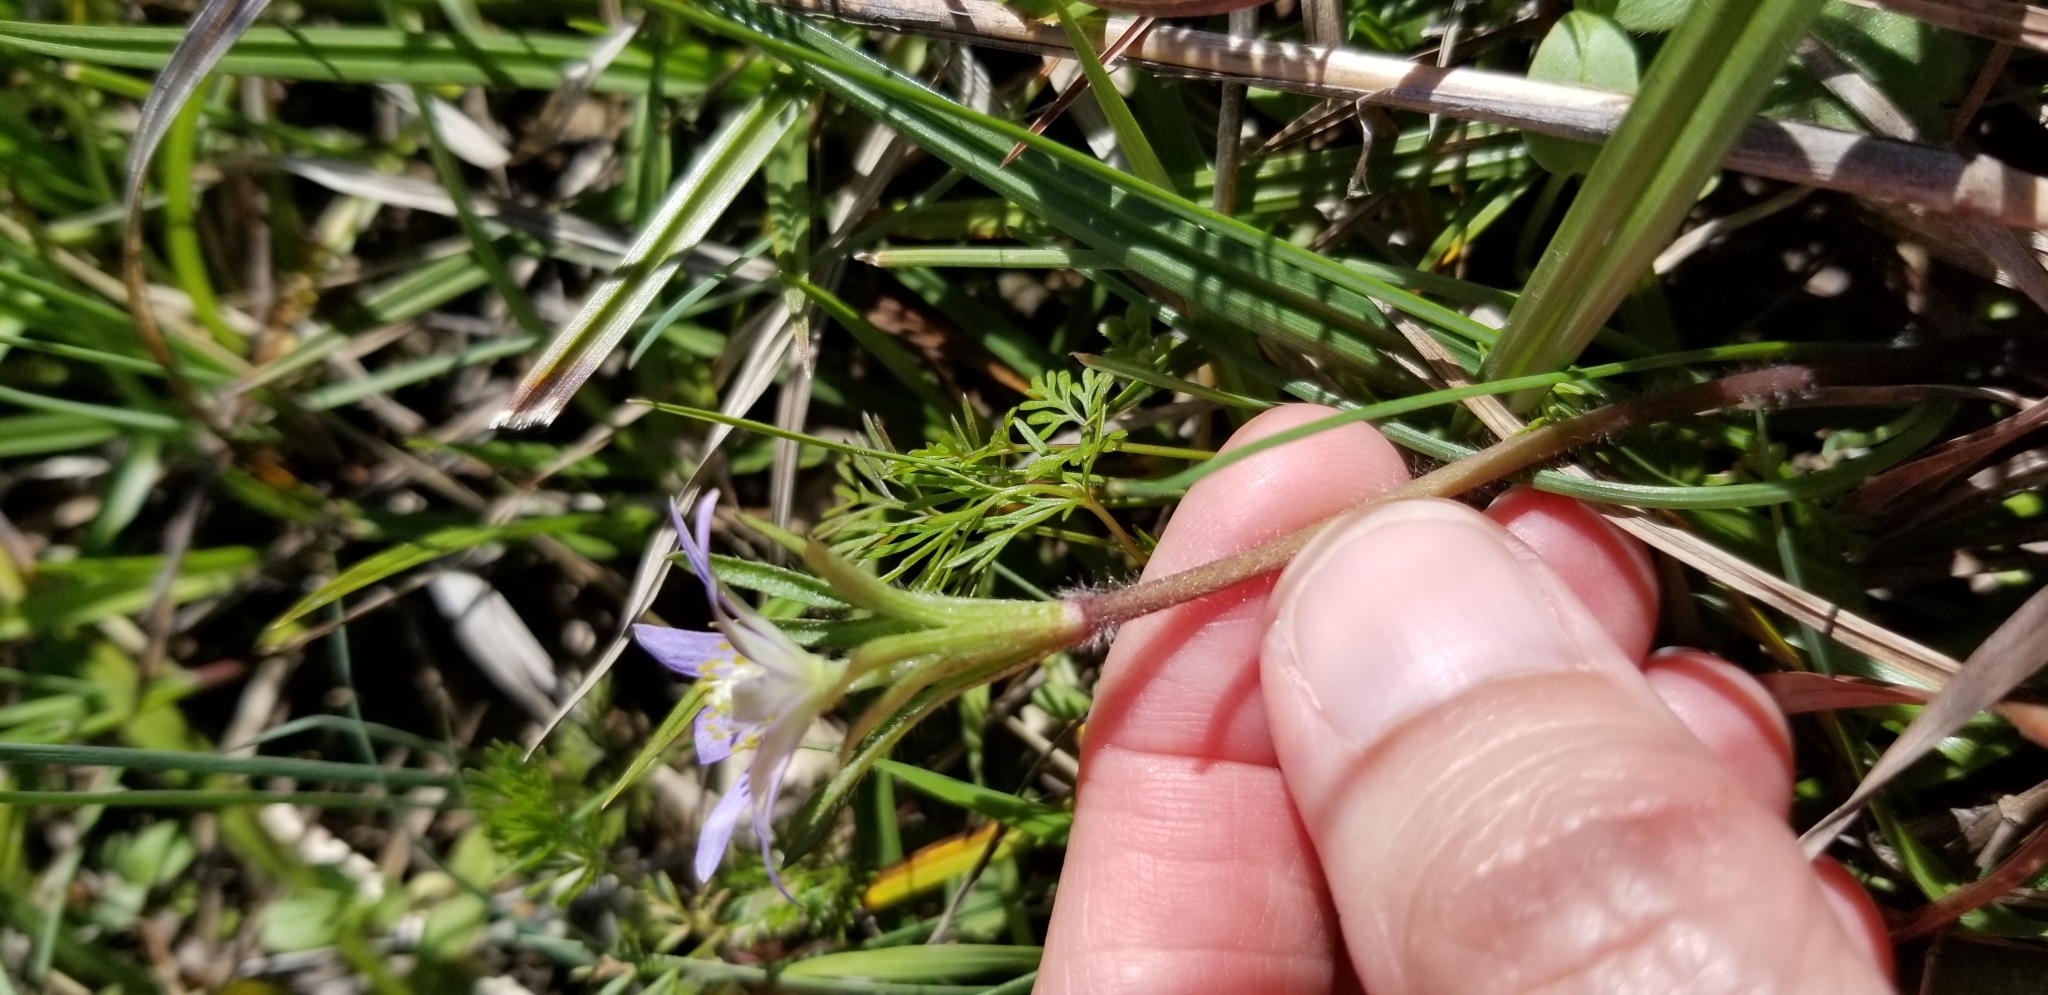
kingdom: Plantae
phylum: Tracheophyta
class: Magnoliopsida
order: Ranunculales
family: Ranunculaceae
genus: Anemone
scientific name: Anemone berlandieri
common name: Ten-petal anemone
